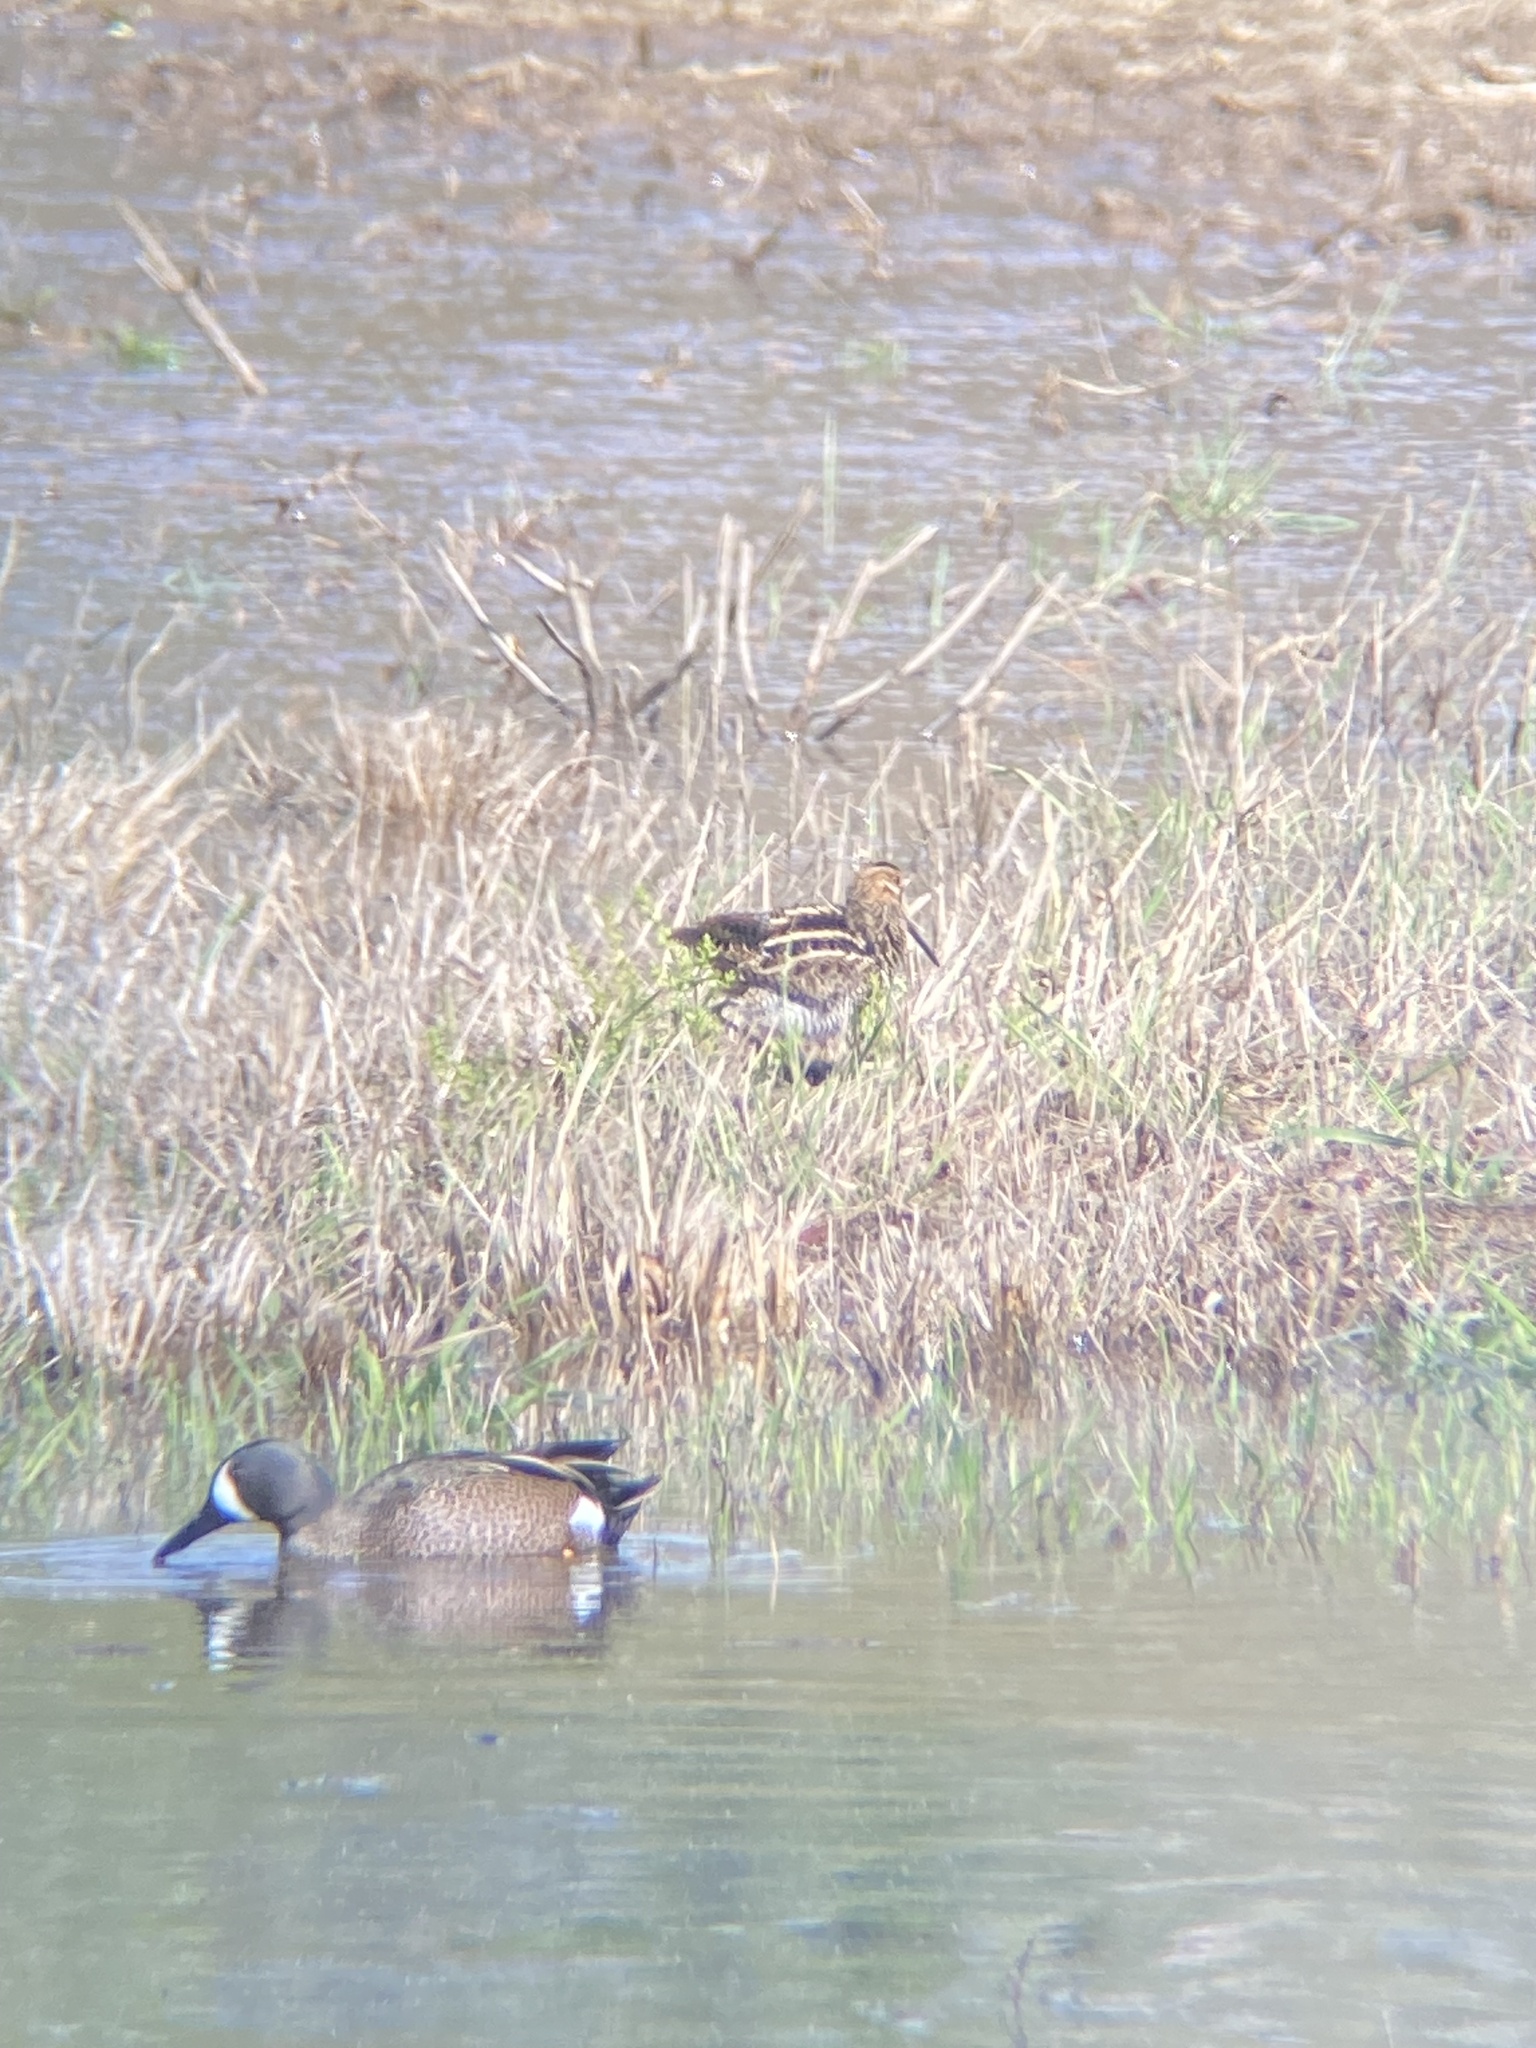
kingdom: Animalia
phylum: Chordata
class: Aves
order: Charadriiformes
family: Scolopacidae
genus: Gallinago
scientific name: Gallinago delicata
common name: Wilson's snipe
